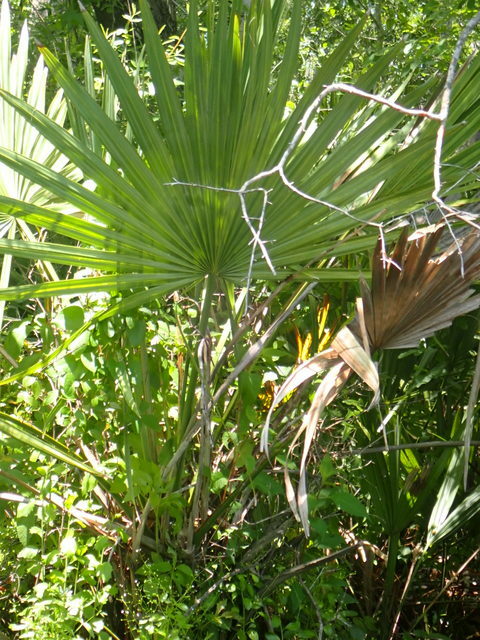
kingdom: Plantae
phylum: Tracheophyta
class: Liliopsida
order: Arecales
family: Arecaceae
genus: Sabal
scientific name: Sabal minor
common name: Dwarf palmetto
